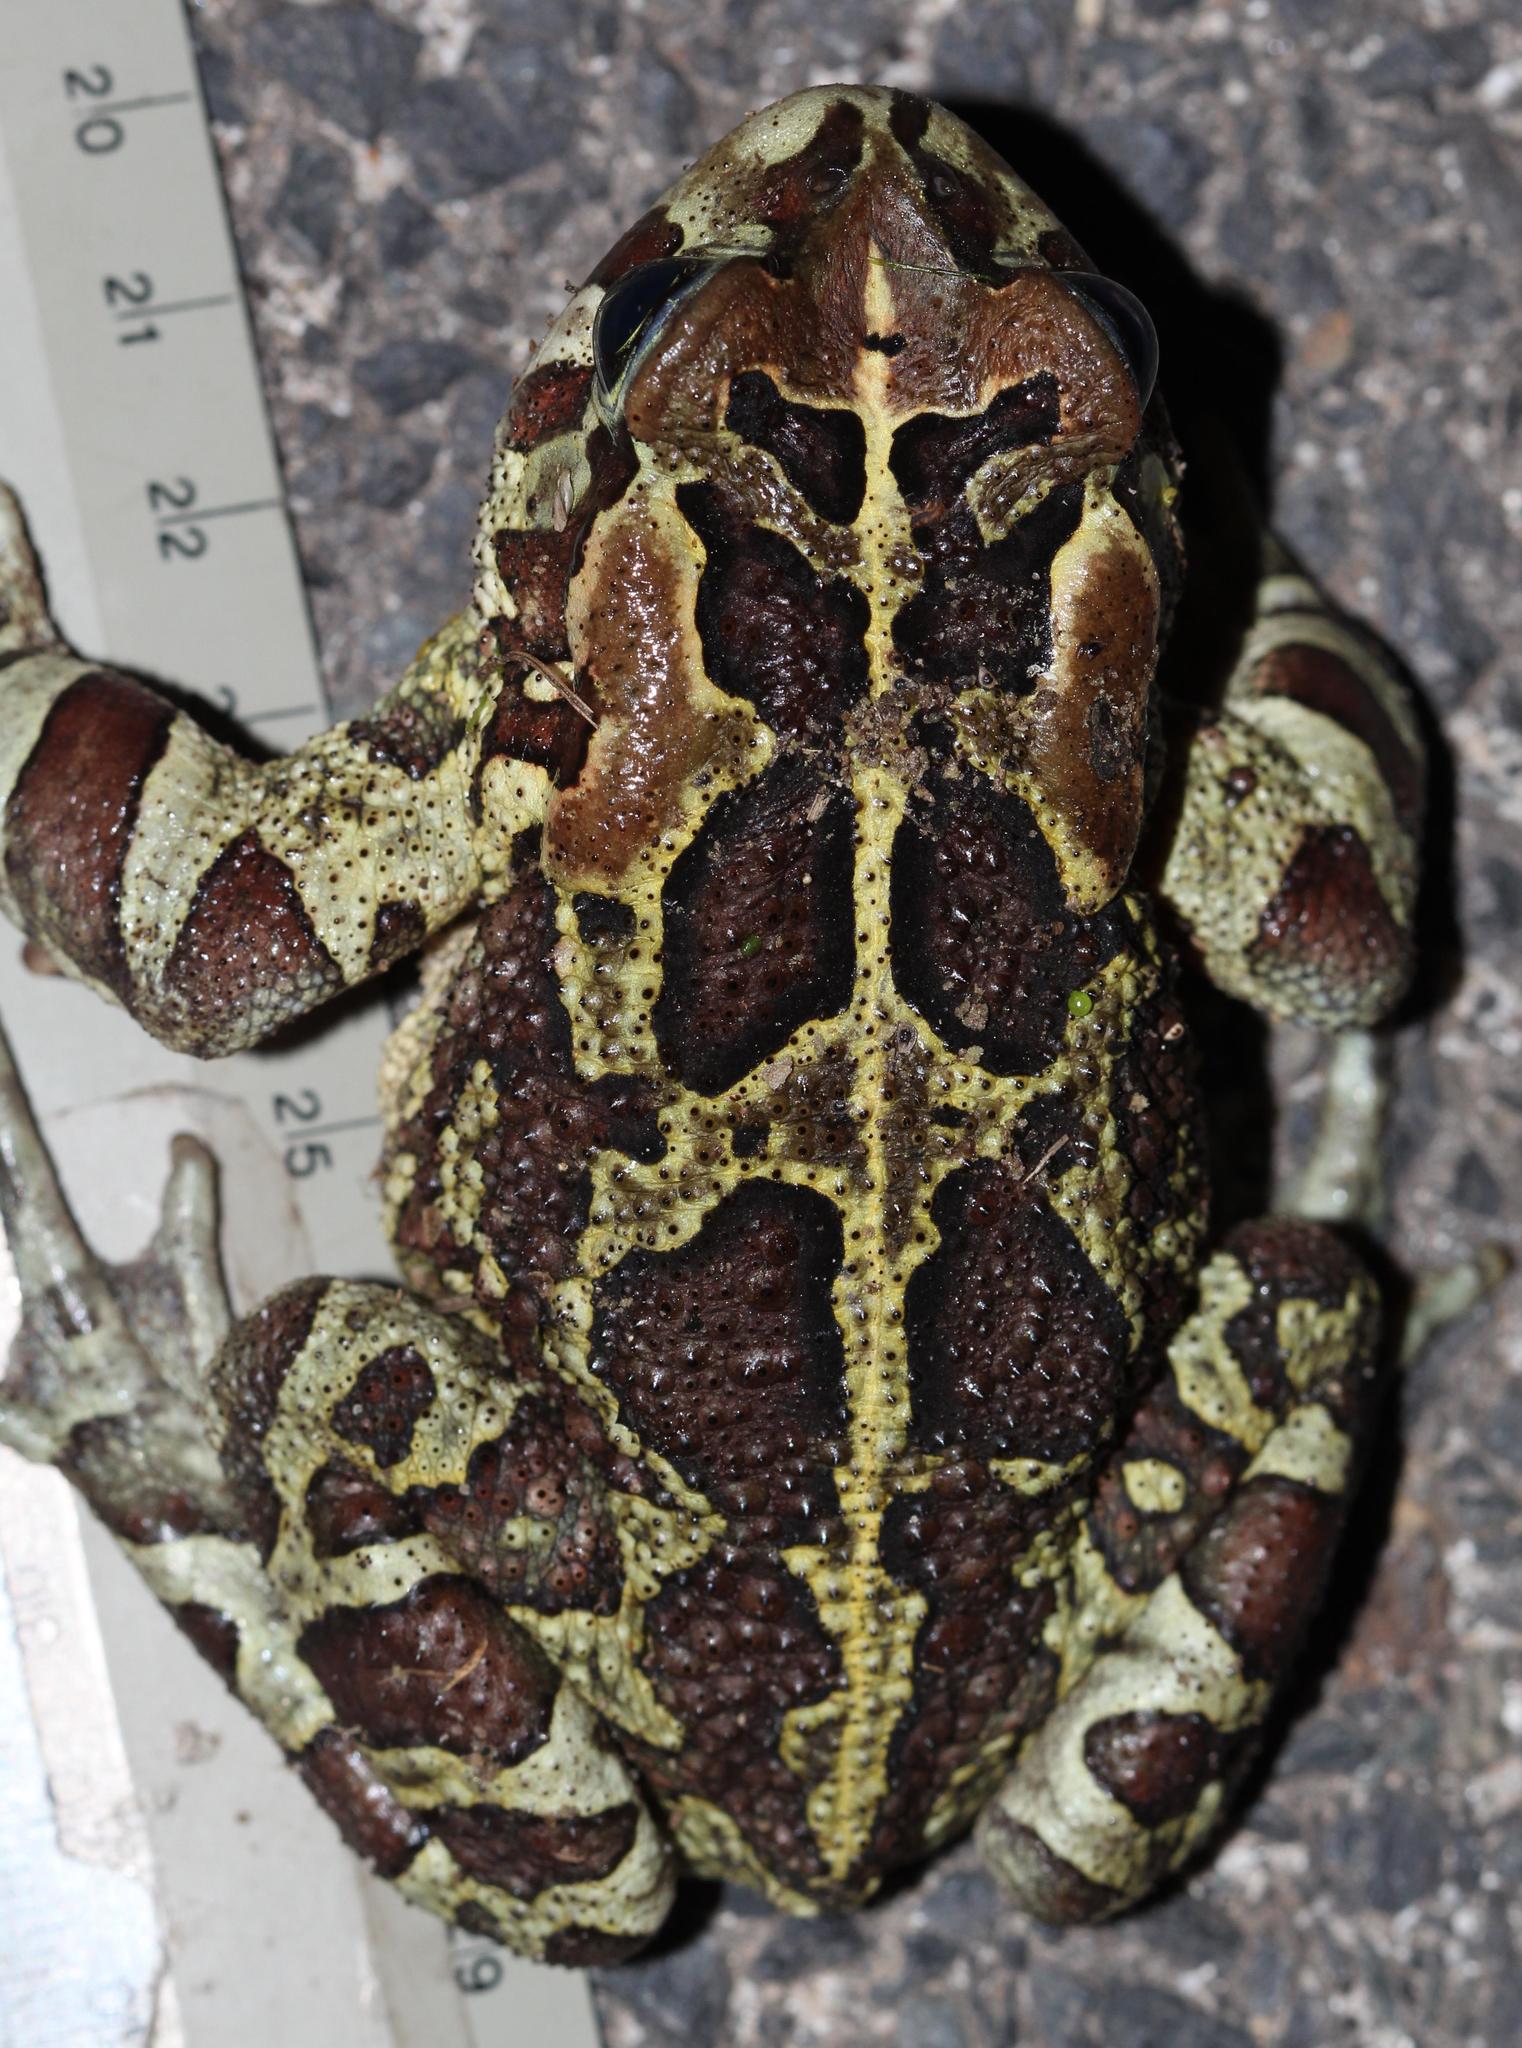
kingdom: Animalia
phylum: Chordata
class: Amphibia
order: Anura
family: Bufonidae
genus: Sclerophrys
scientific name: Sclerophrys pantherina
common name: Panther toad
